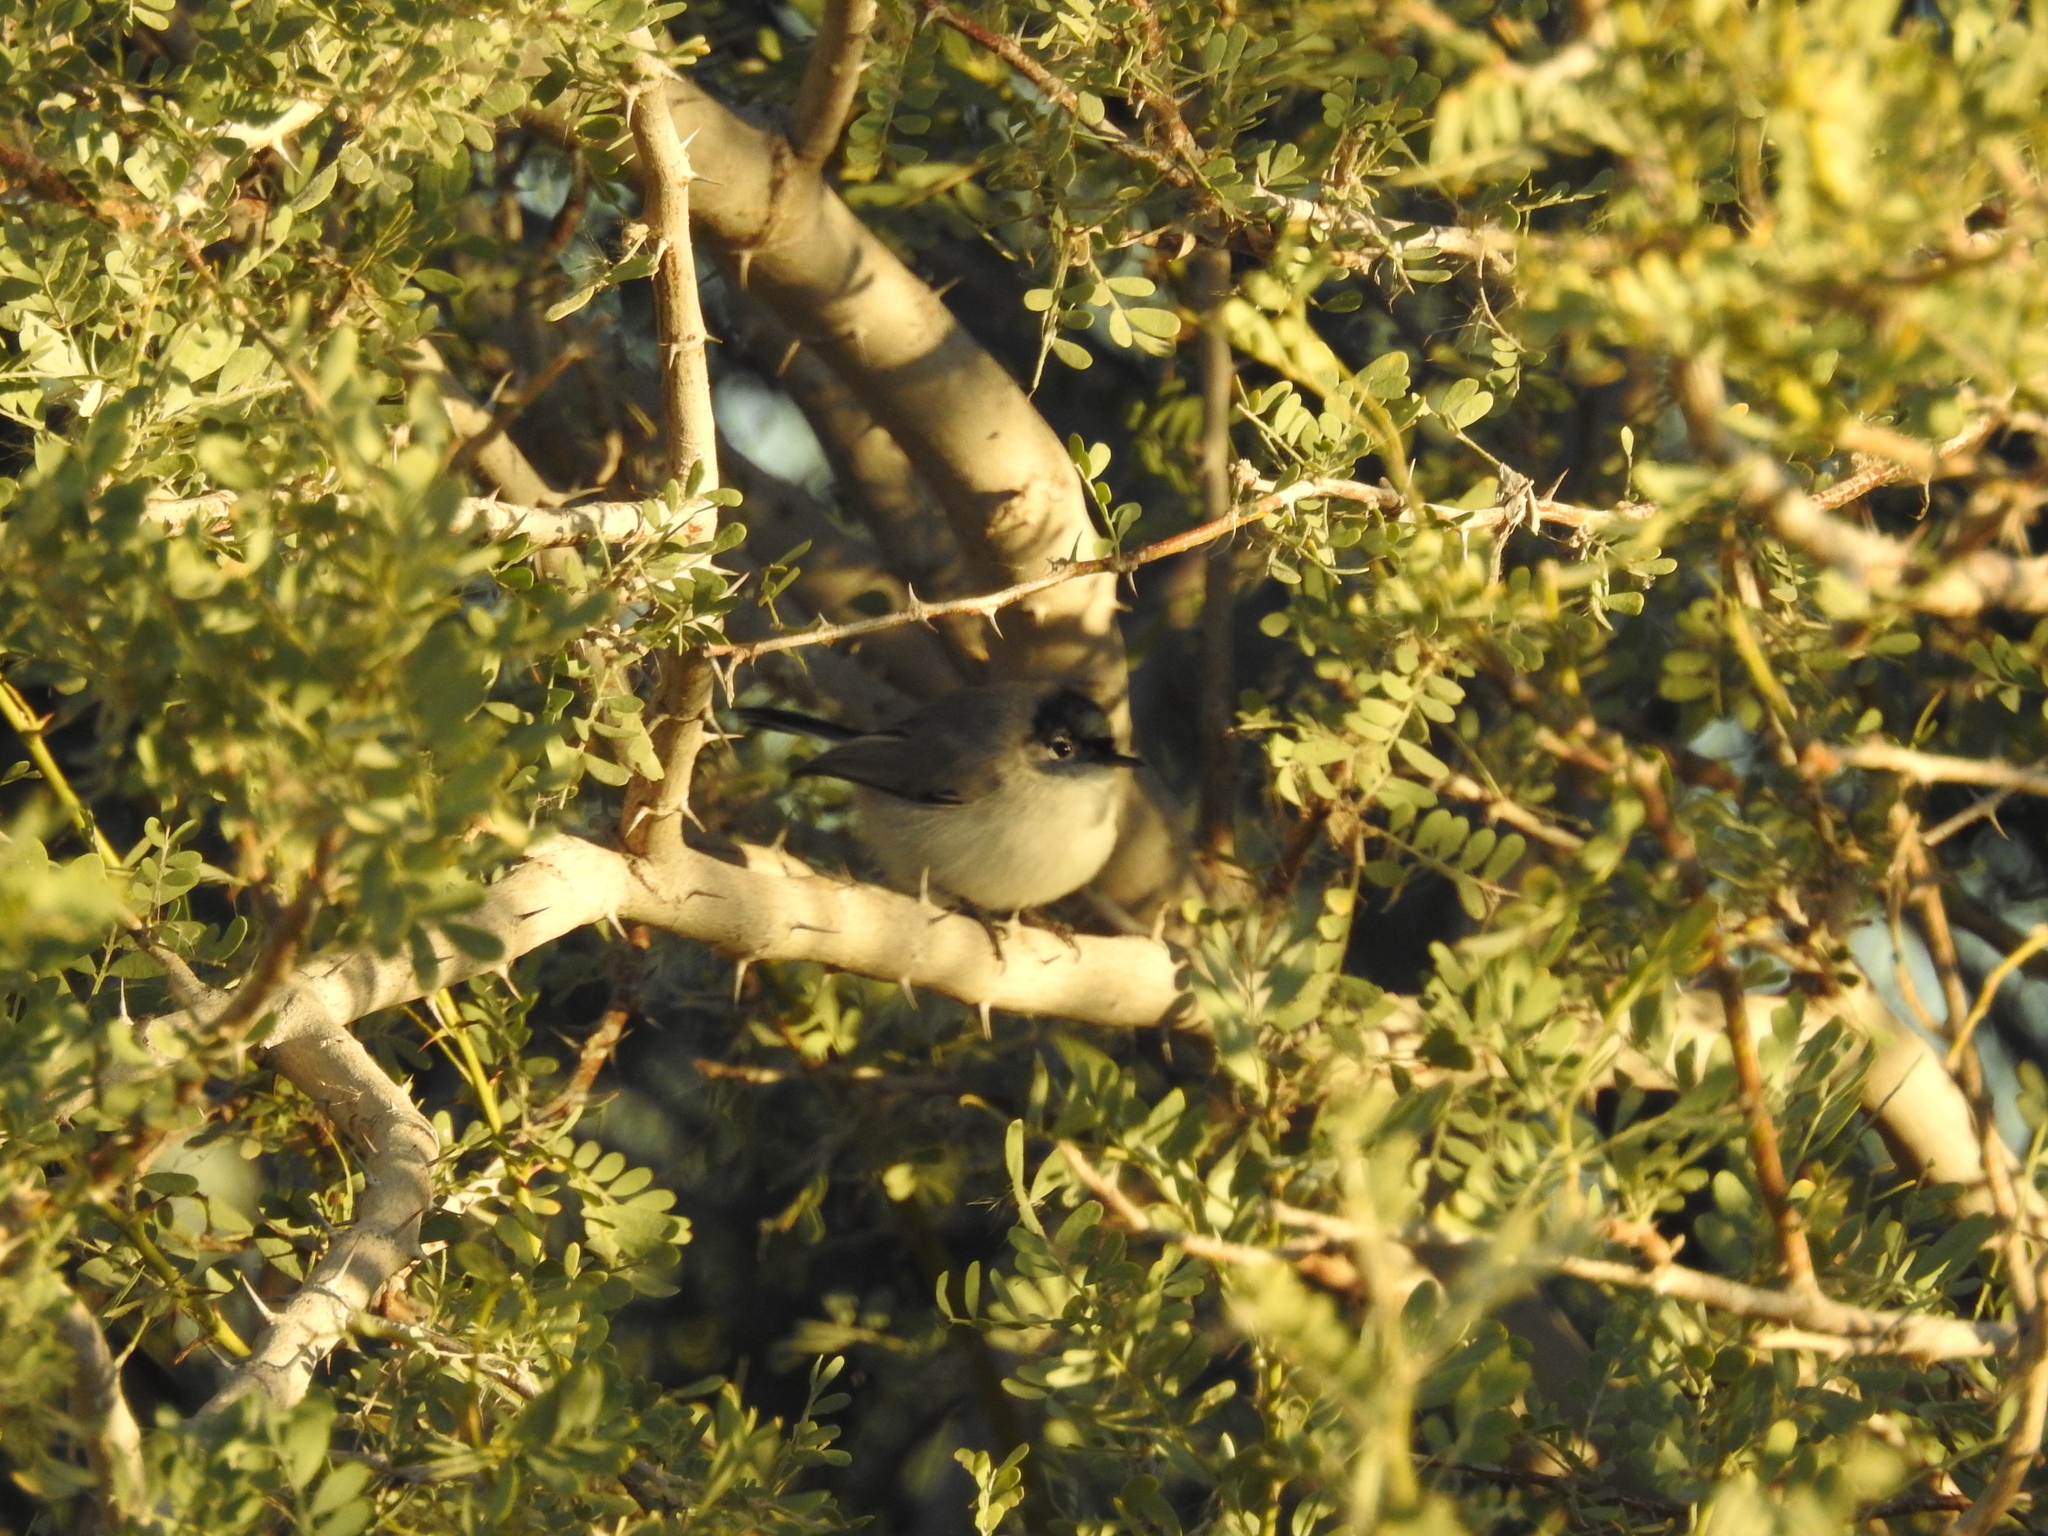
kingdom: Animalia
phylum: Chordata
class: Aves
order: Passeriformes
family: Polioptilidae
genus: Polioptila
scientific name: Polioptila melanura
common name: Black-tailed gnatcatcher
